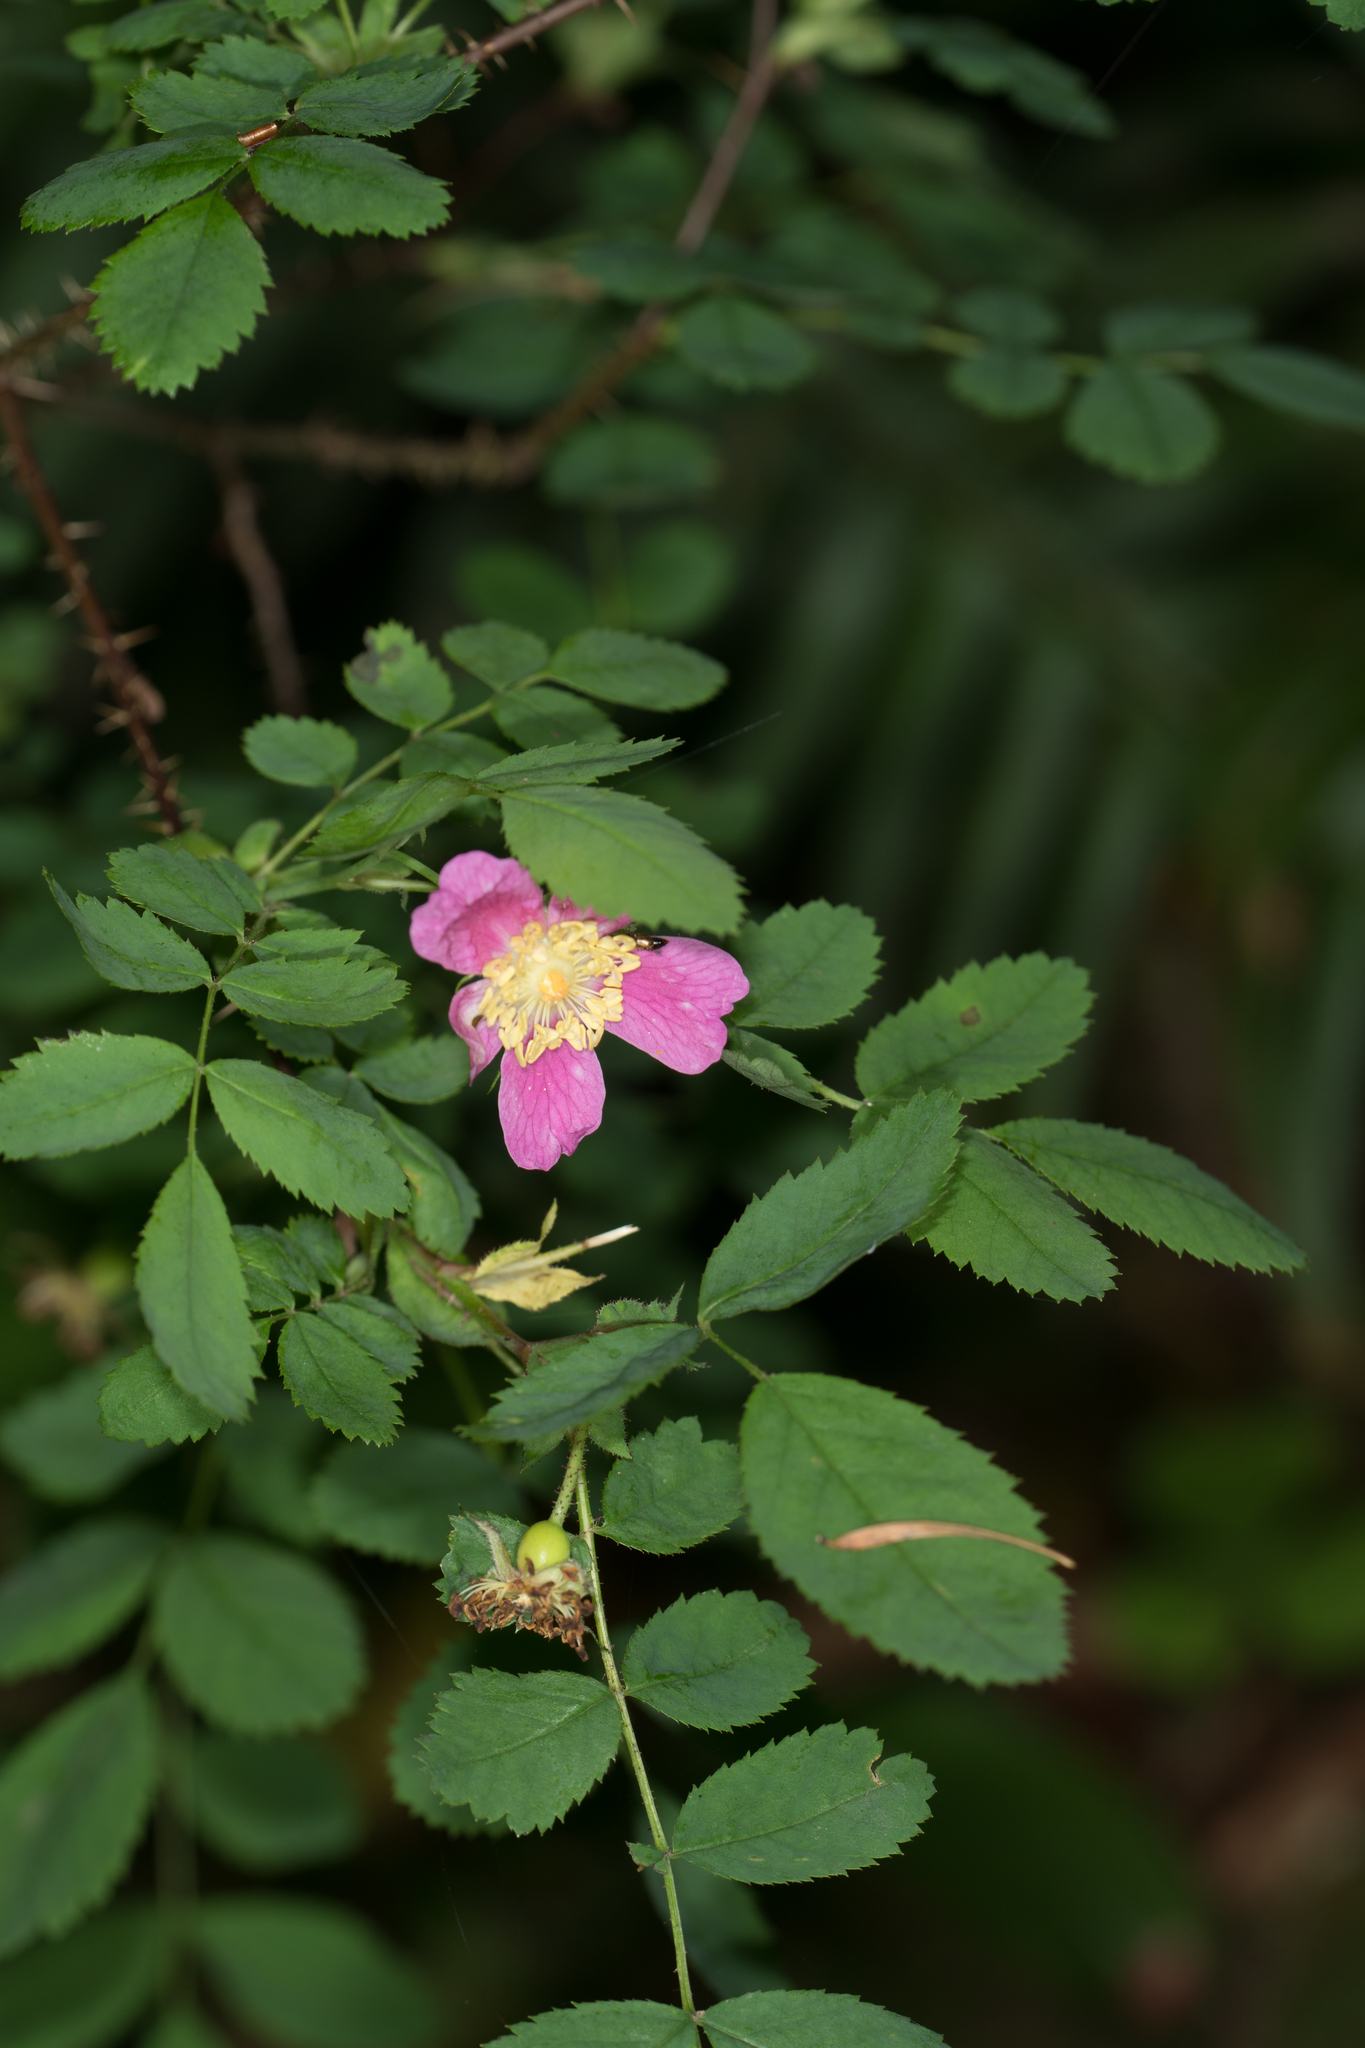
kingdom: Plantae
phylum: Tracheophyta
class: Magnoliopsida
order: Rosales
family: Rosaceae
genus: Rosa
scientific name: Rosa gymnocarpa
